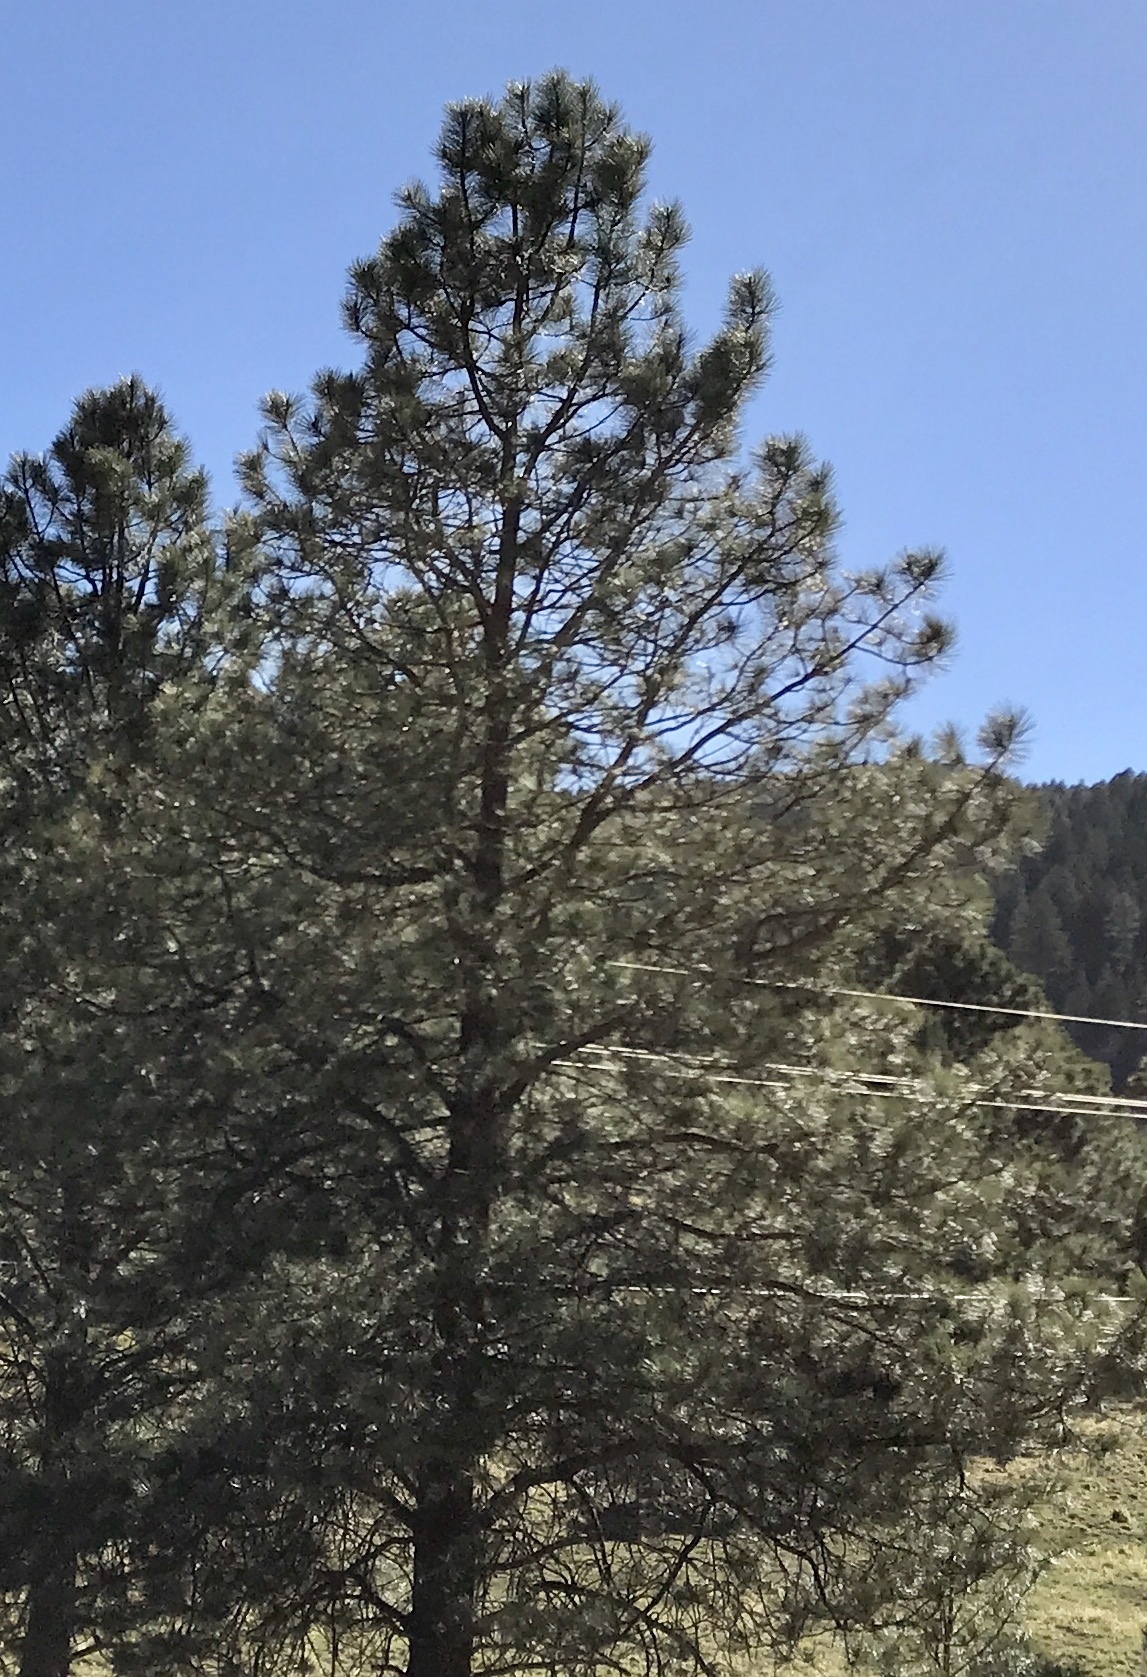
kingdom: Plantae
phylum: Tracheophyta
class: Pinopsida
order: Pinales
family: Pinaceae
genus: Pinus
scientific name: Pinus ponderosa
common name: Western yellow-pine
